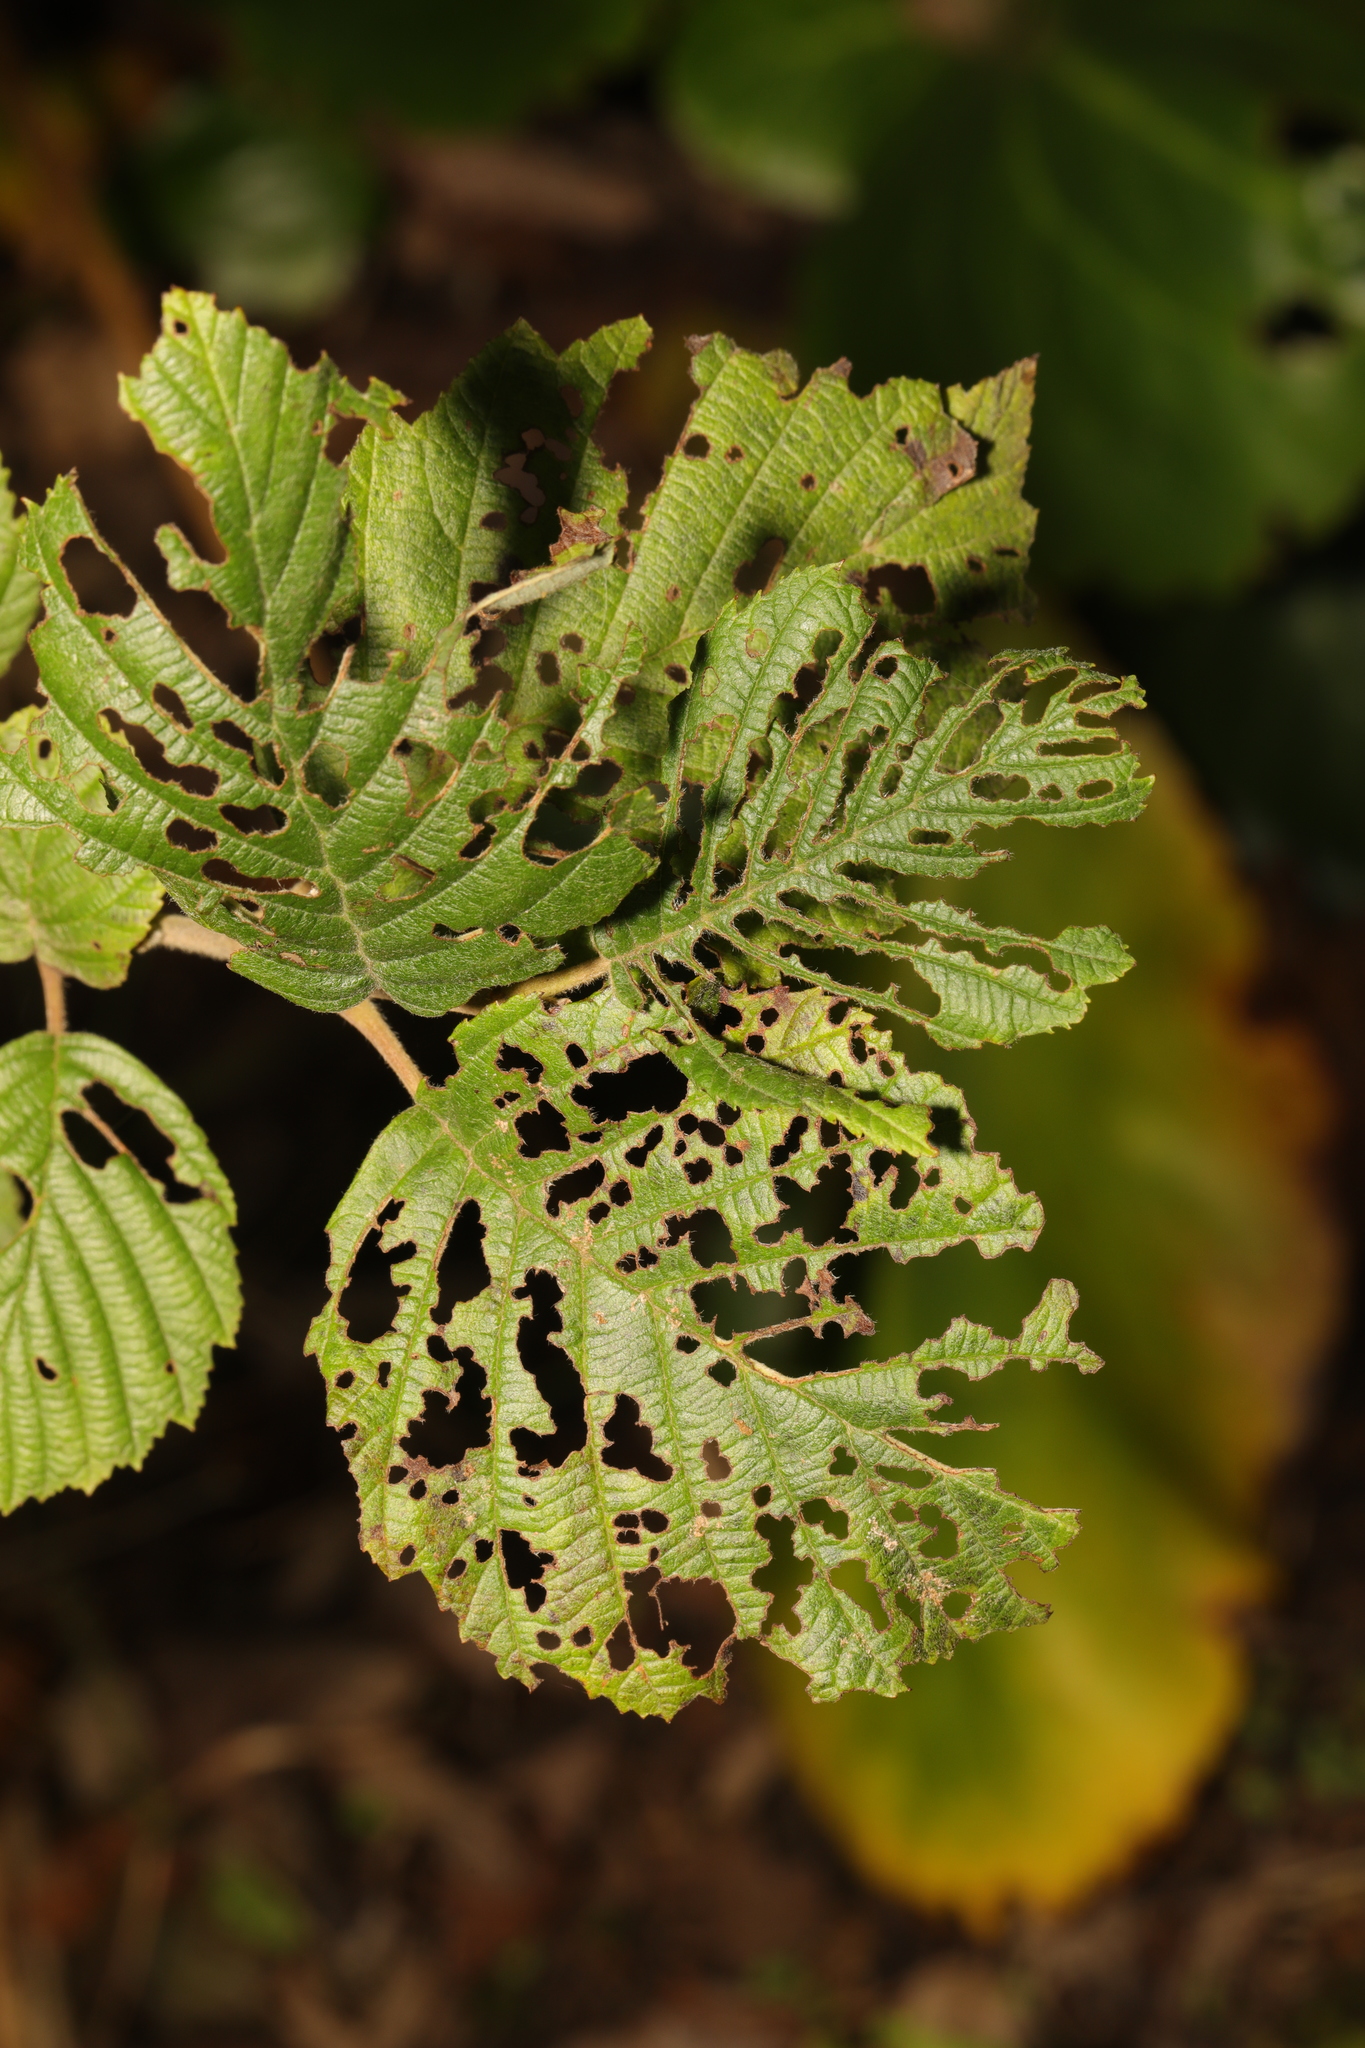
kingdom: Animalia
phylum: Arthropoda
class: Insecta
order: Coleoptera
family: Chrysomelidae
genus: Agelastica
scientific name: Agelastica alni
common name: Alder leaf beetle
